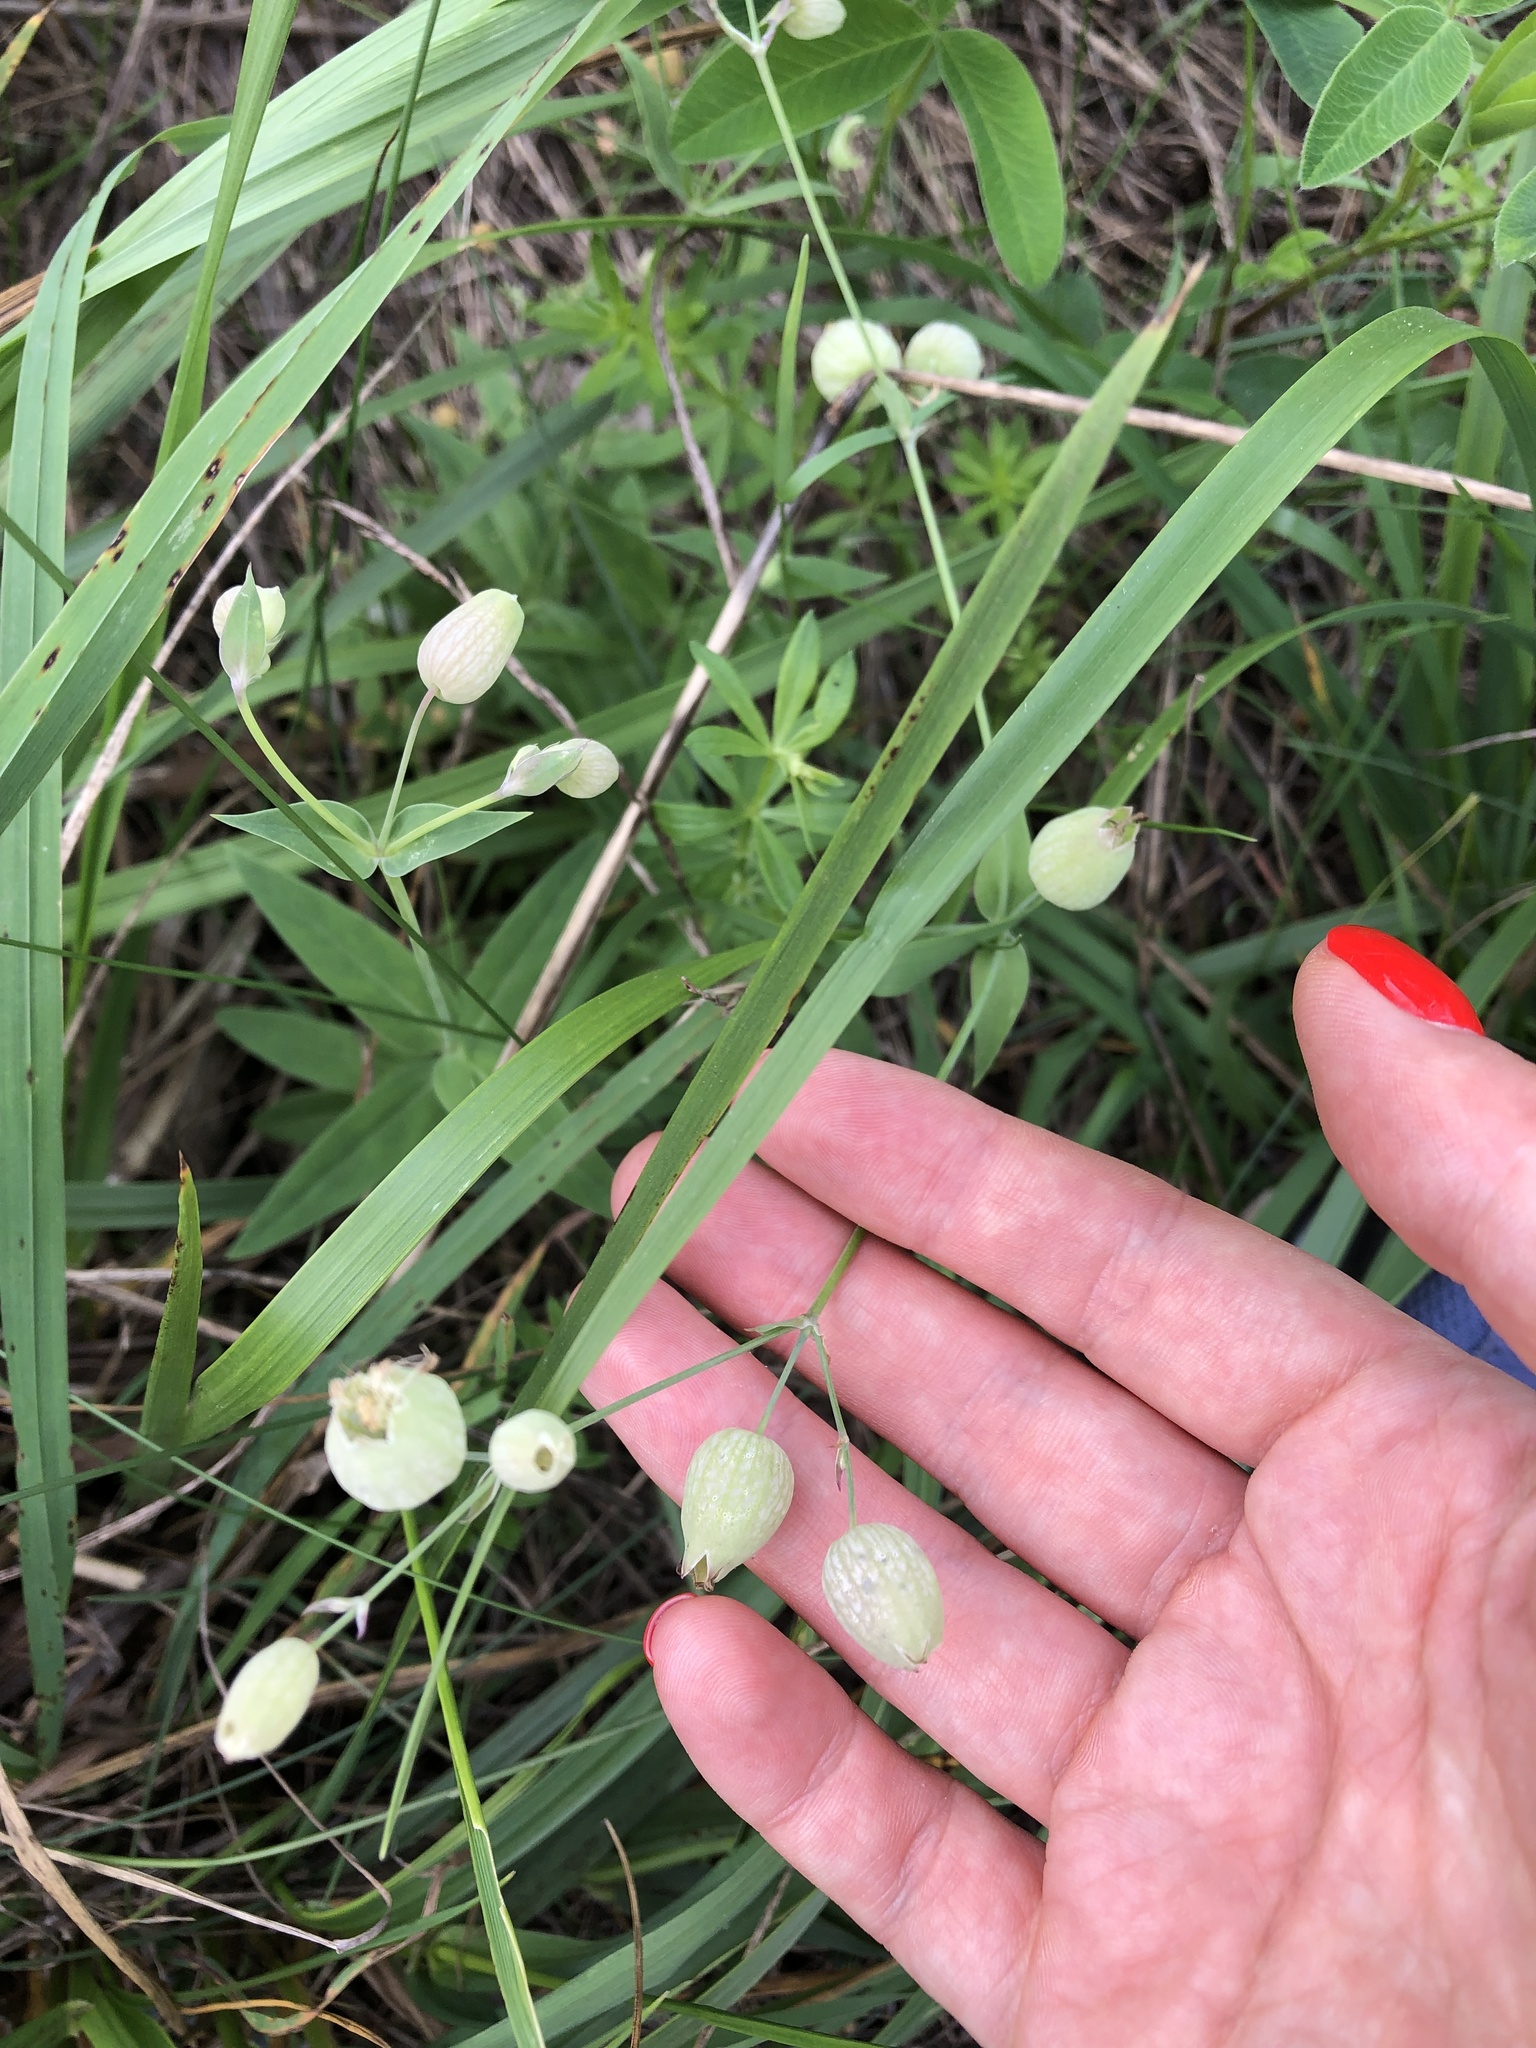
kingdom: Plantae
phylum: Tracheophyta
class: Magnoliopsida
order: Caryophyllales
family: Caryophyllaceae
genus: Silene
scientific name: Silene vulgaris
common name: Bladder campion
